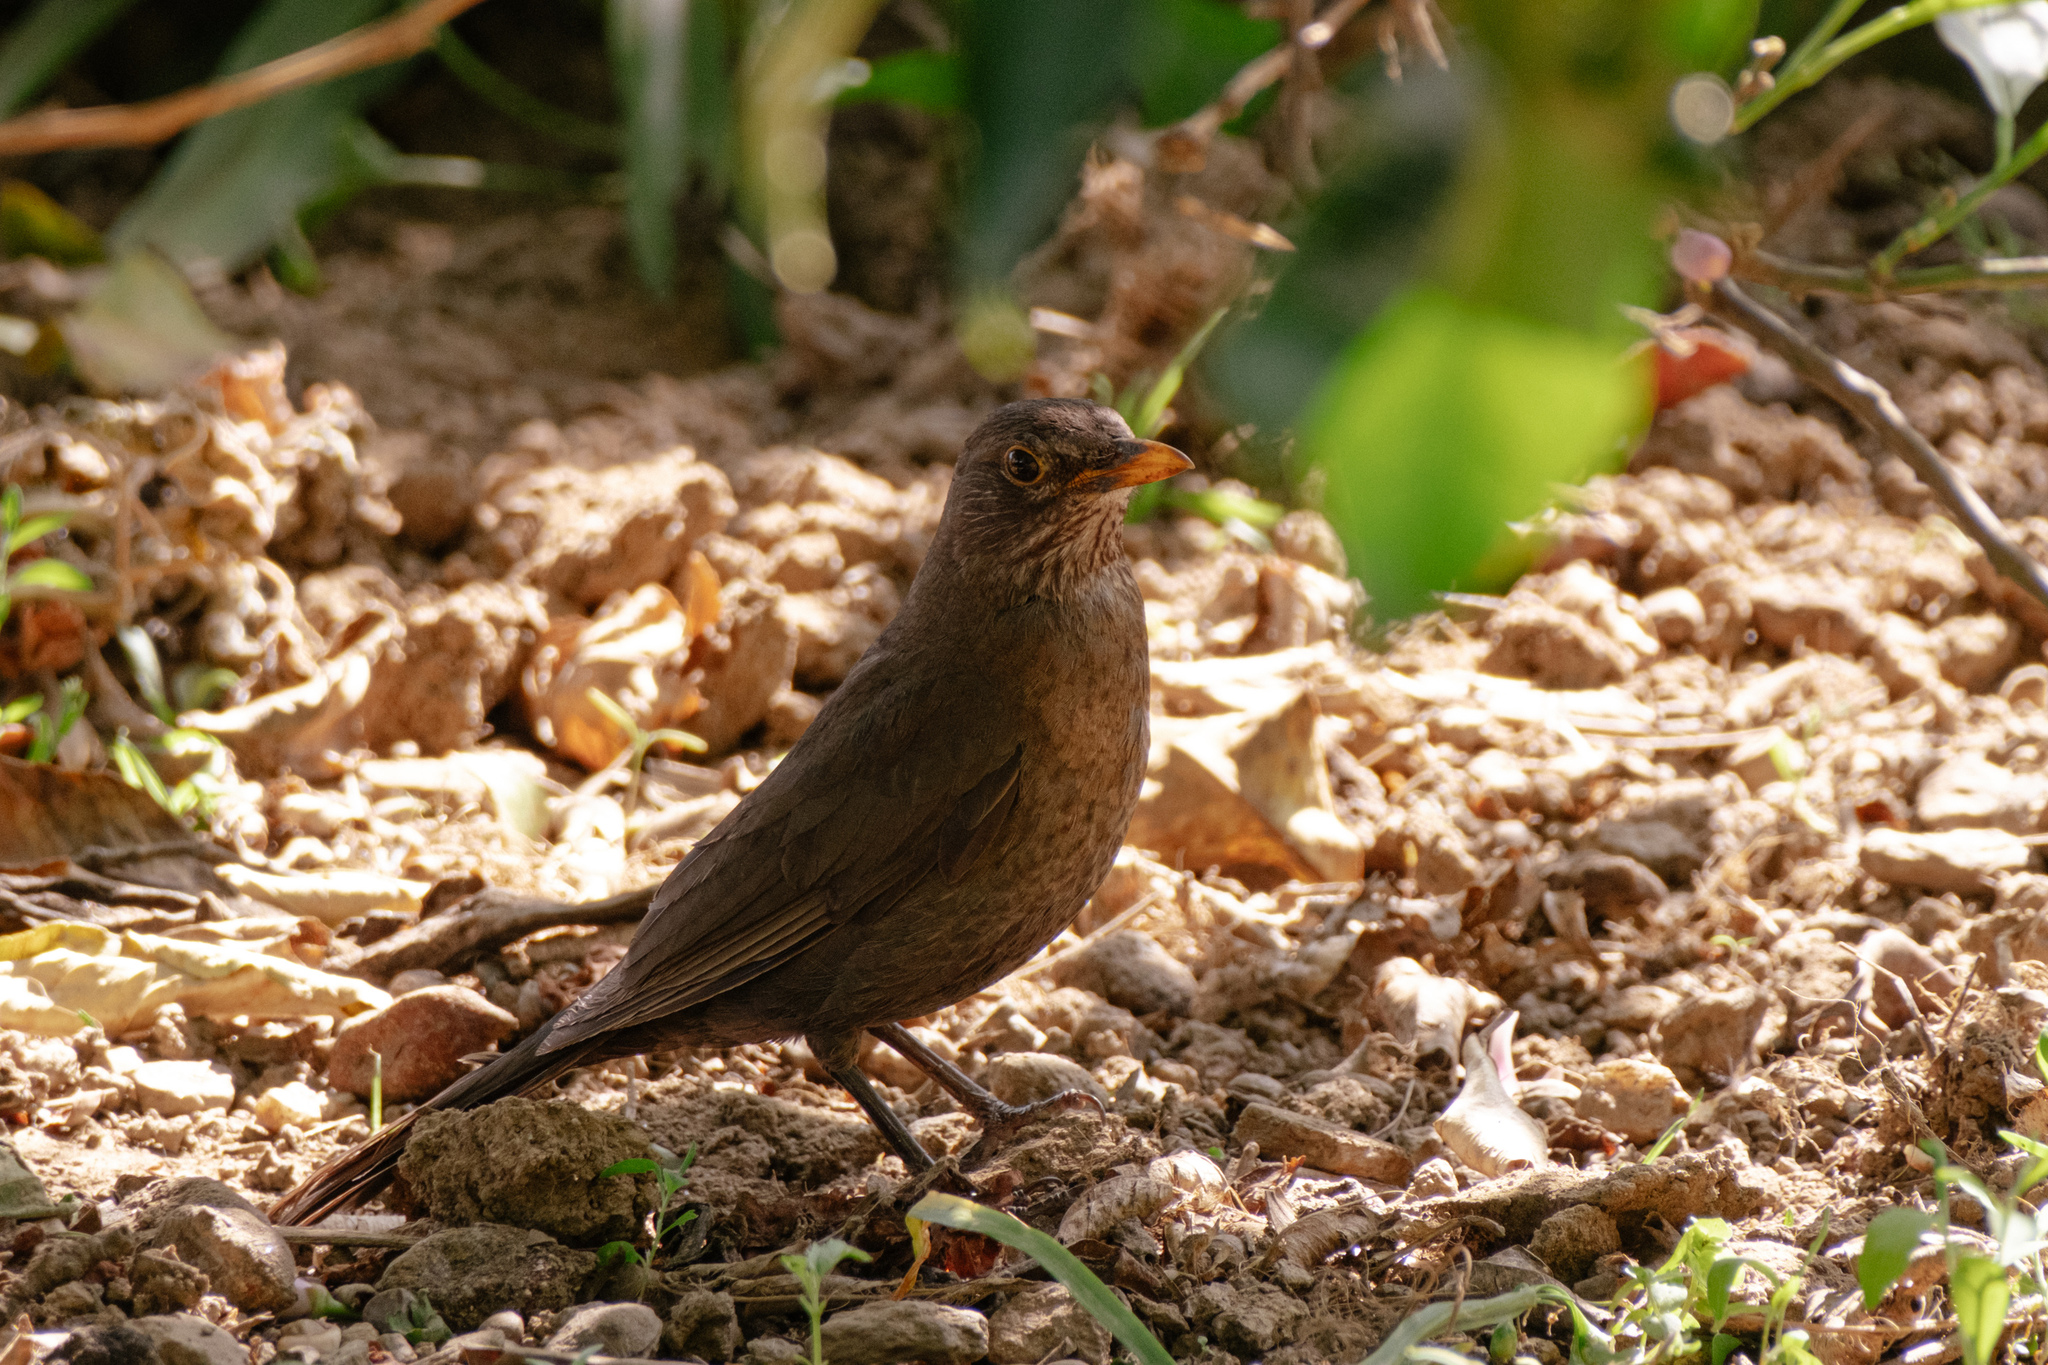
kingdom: Animalia
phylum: Chordata
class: Aves
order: Passeriformes
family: Turdidae
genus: Turdus
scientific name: Turdus merula
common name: Common blackbird
